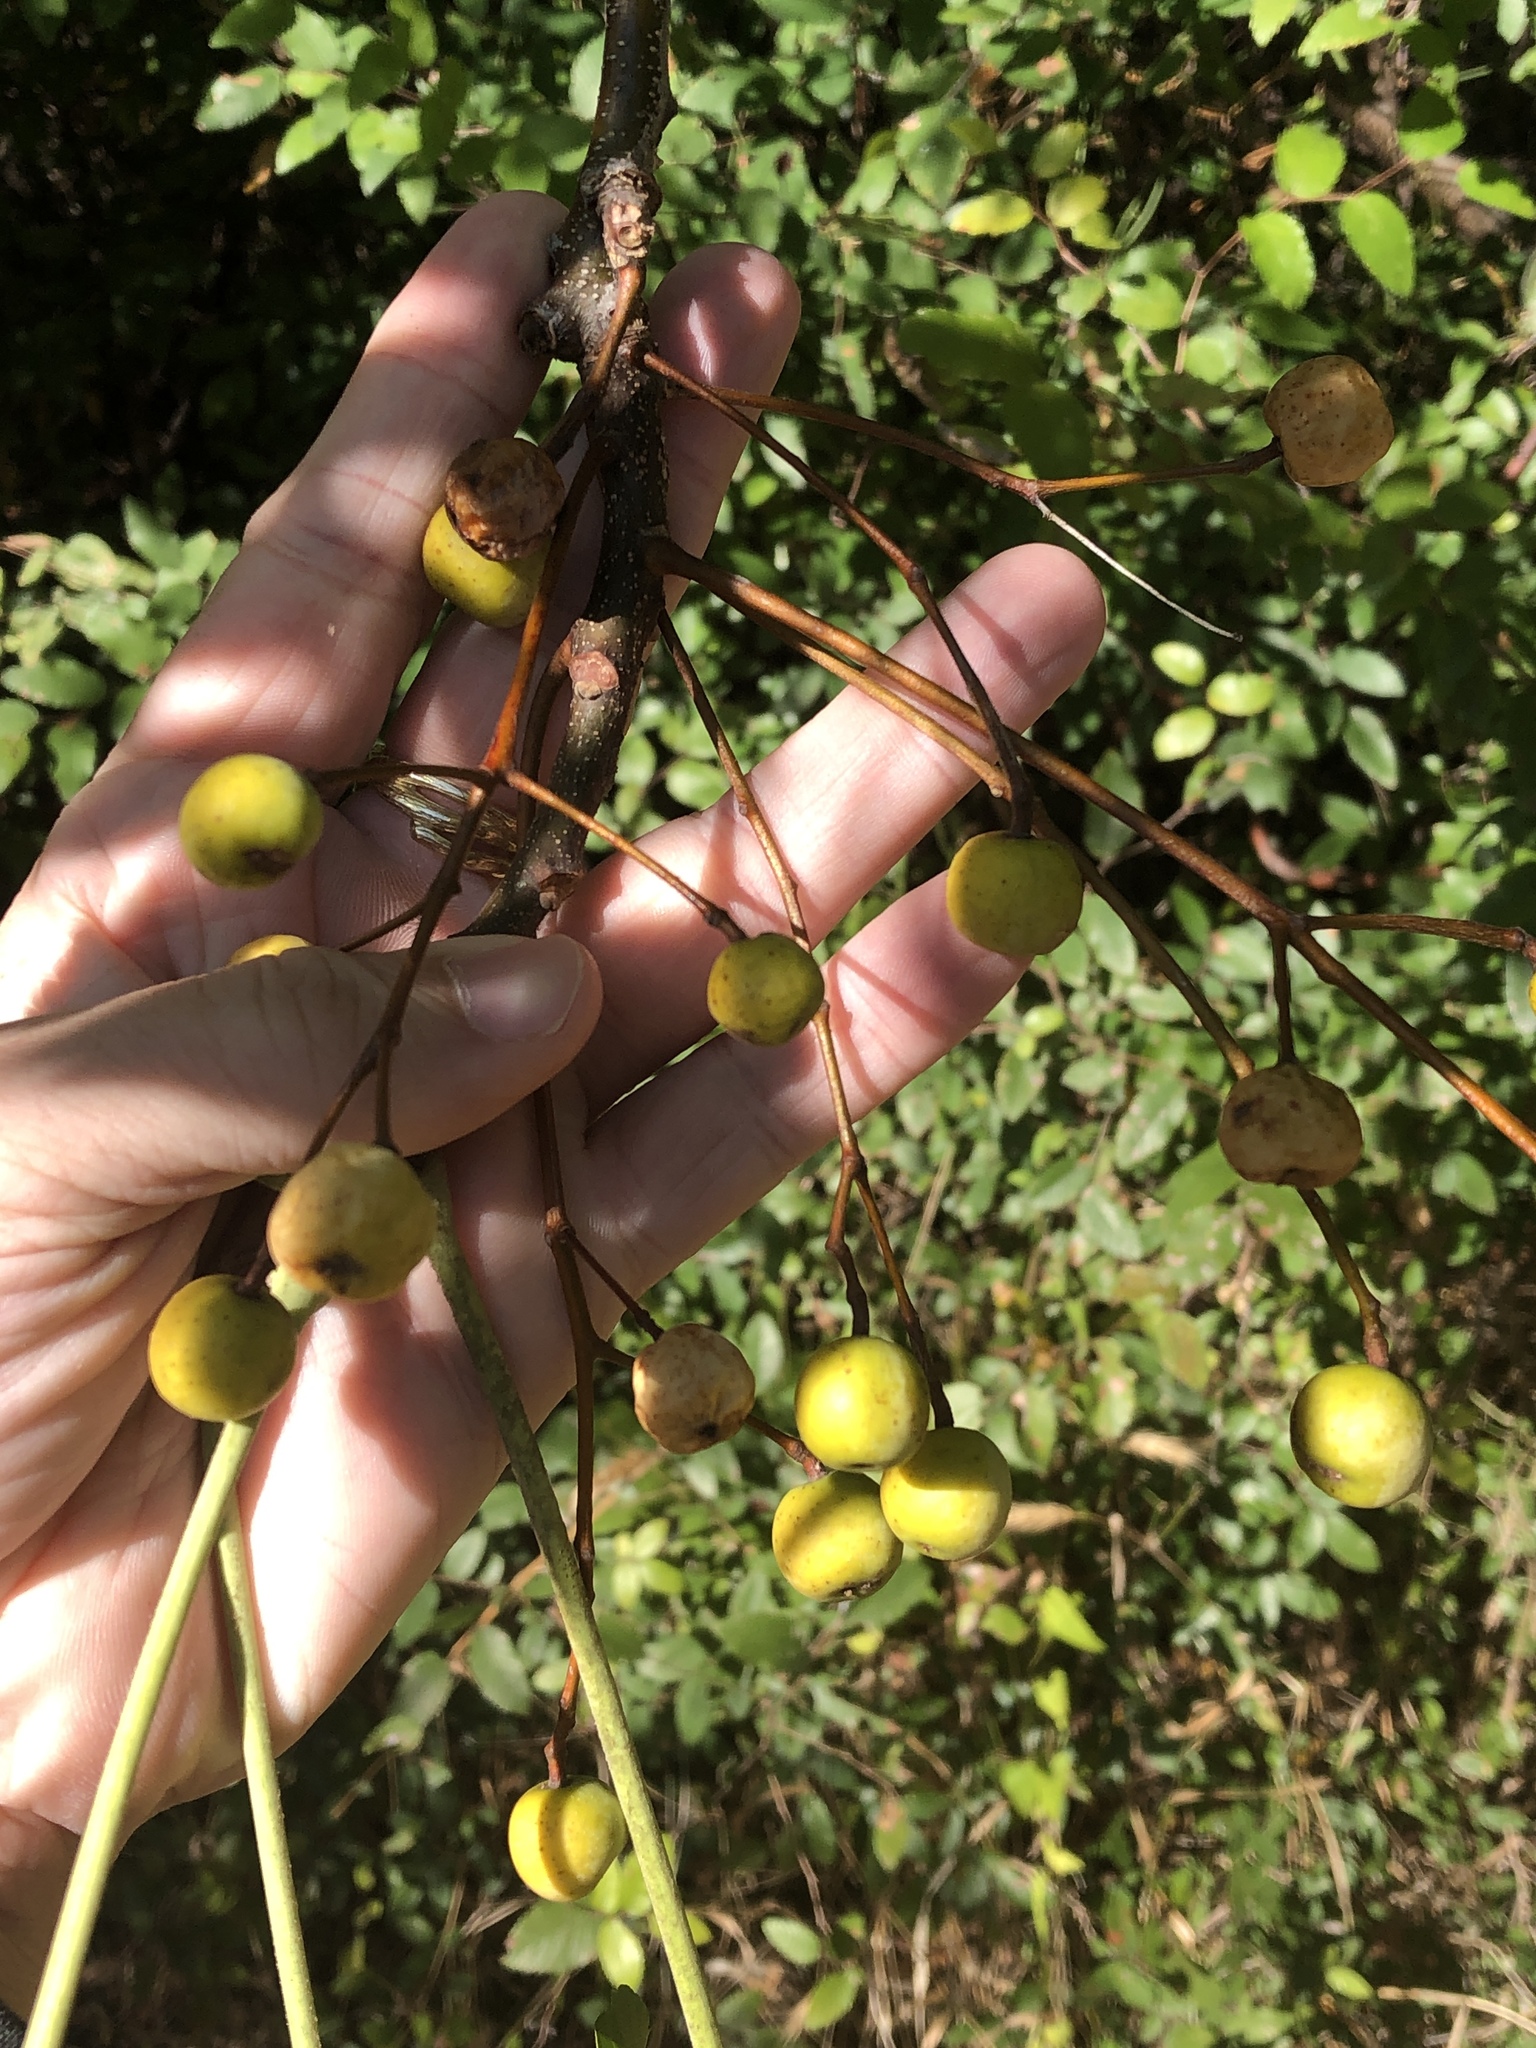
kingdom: Plantae
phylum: Tracheophyta
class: Magnoliopsida
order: Sapindales
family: Meliaceae
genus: Melia
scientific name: Melia azedarach
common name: Chinaberrytree
